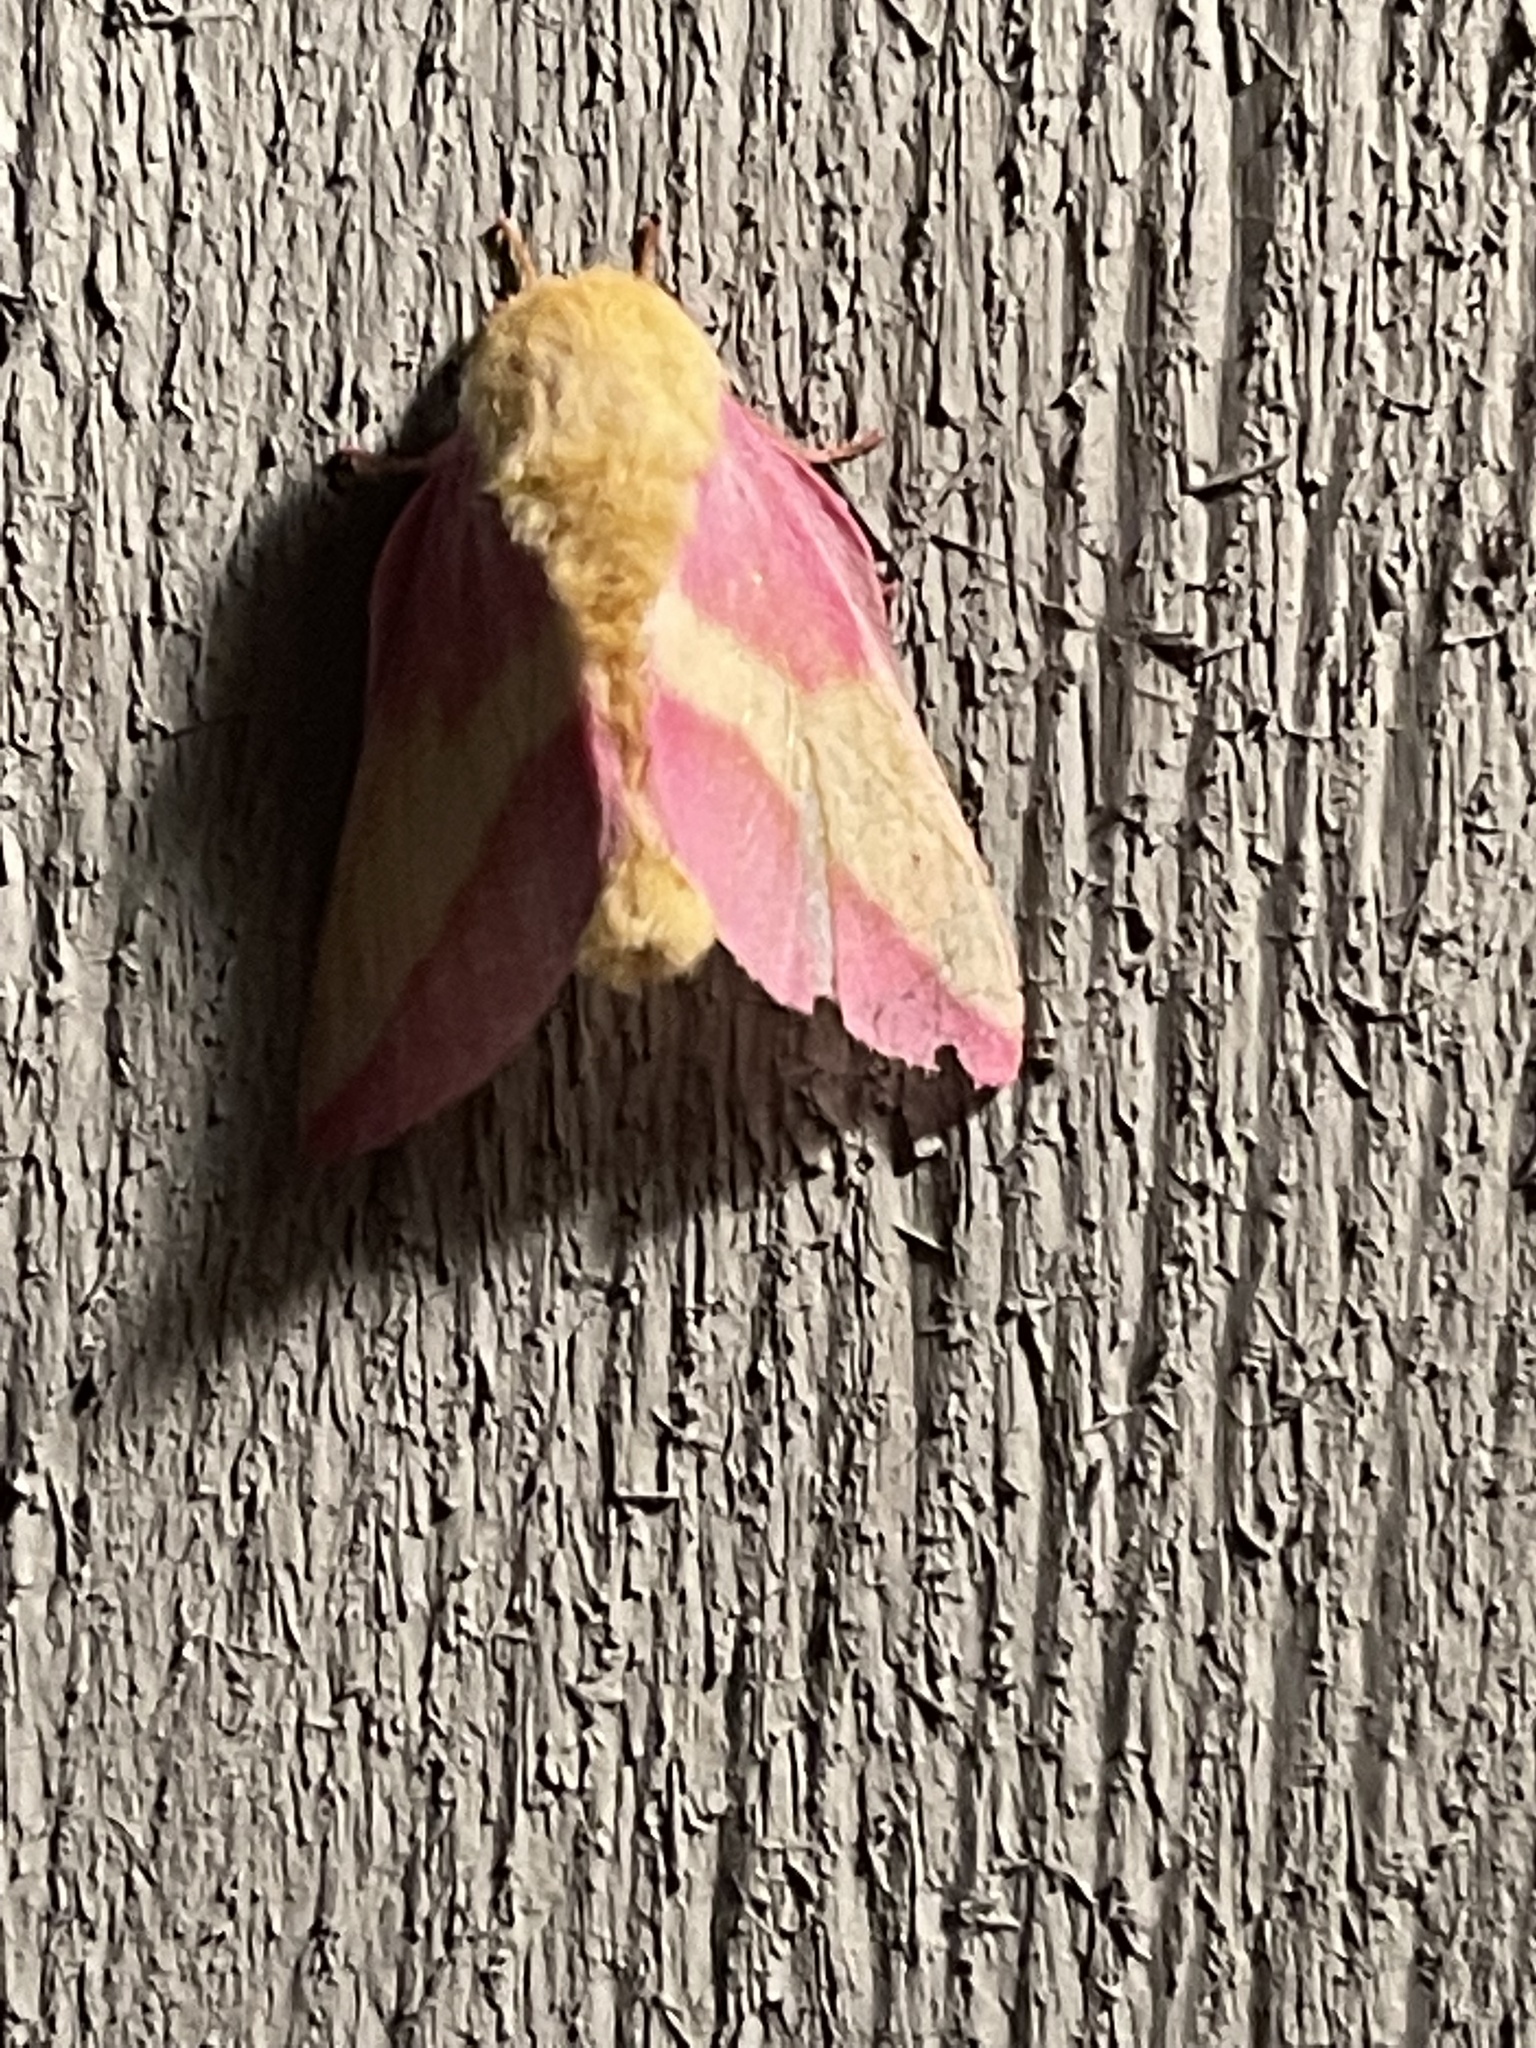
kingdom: Animalia
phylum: Arthropoda
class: Insecta
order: Lepidoptera
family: Saturniidae
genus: Dryocampa
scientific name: Dryocampa rubicunda
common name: Rosy maple moth
